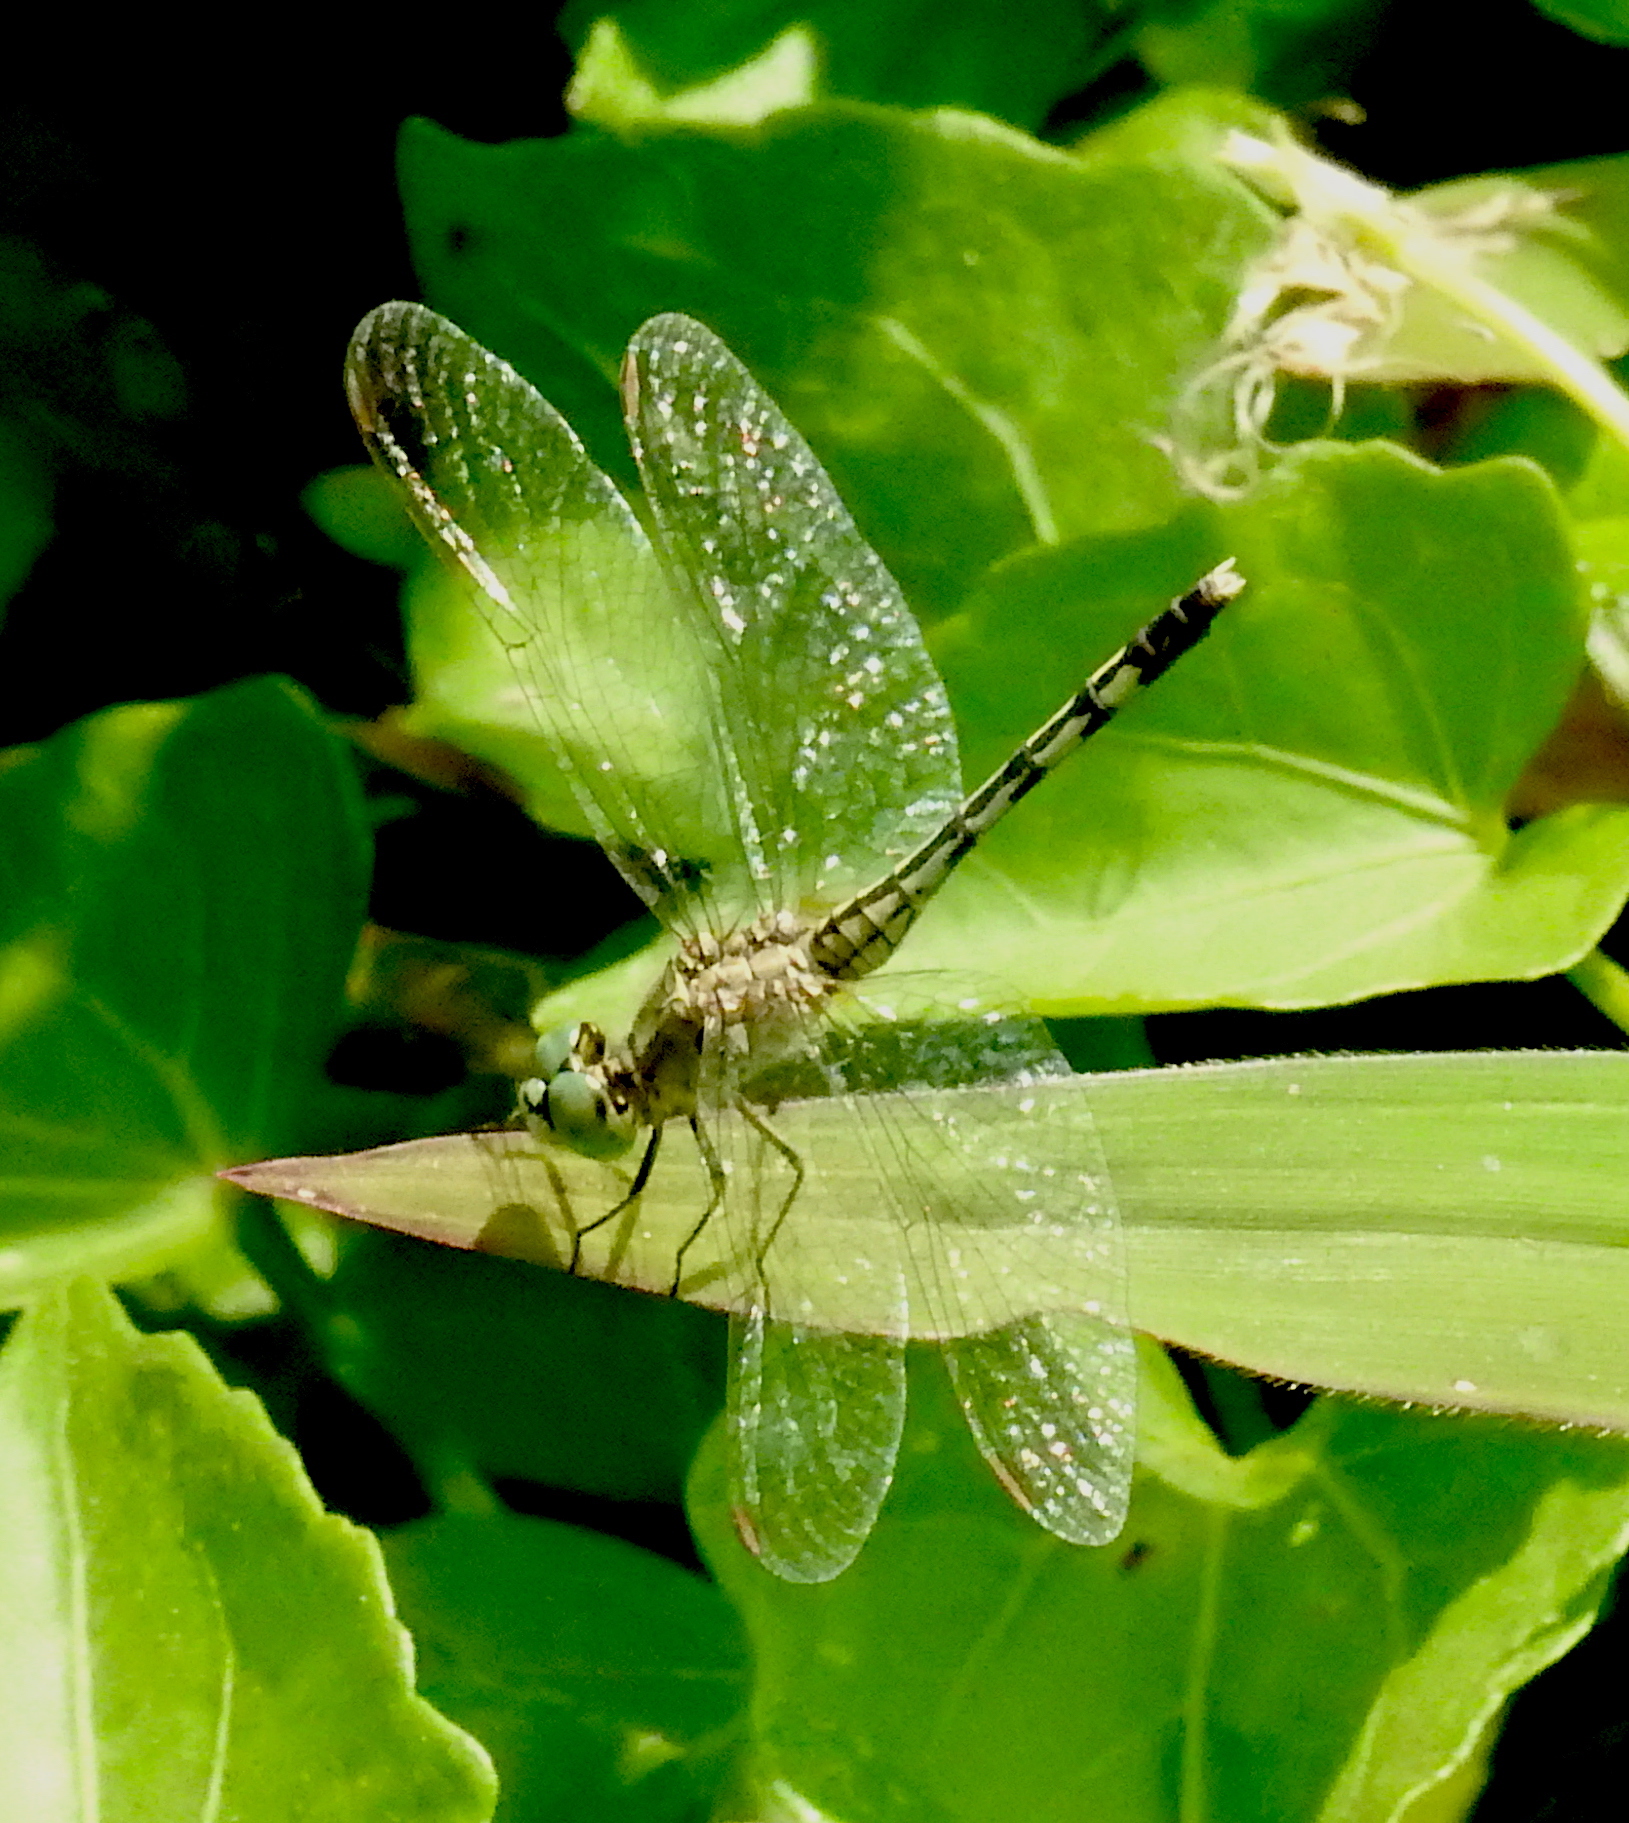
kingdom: Animalia
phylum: Arthropoda
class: Insecta
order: Odonata
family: Libellulidae
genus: Diplacodes
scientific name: Diplacodes trivialis
